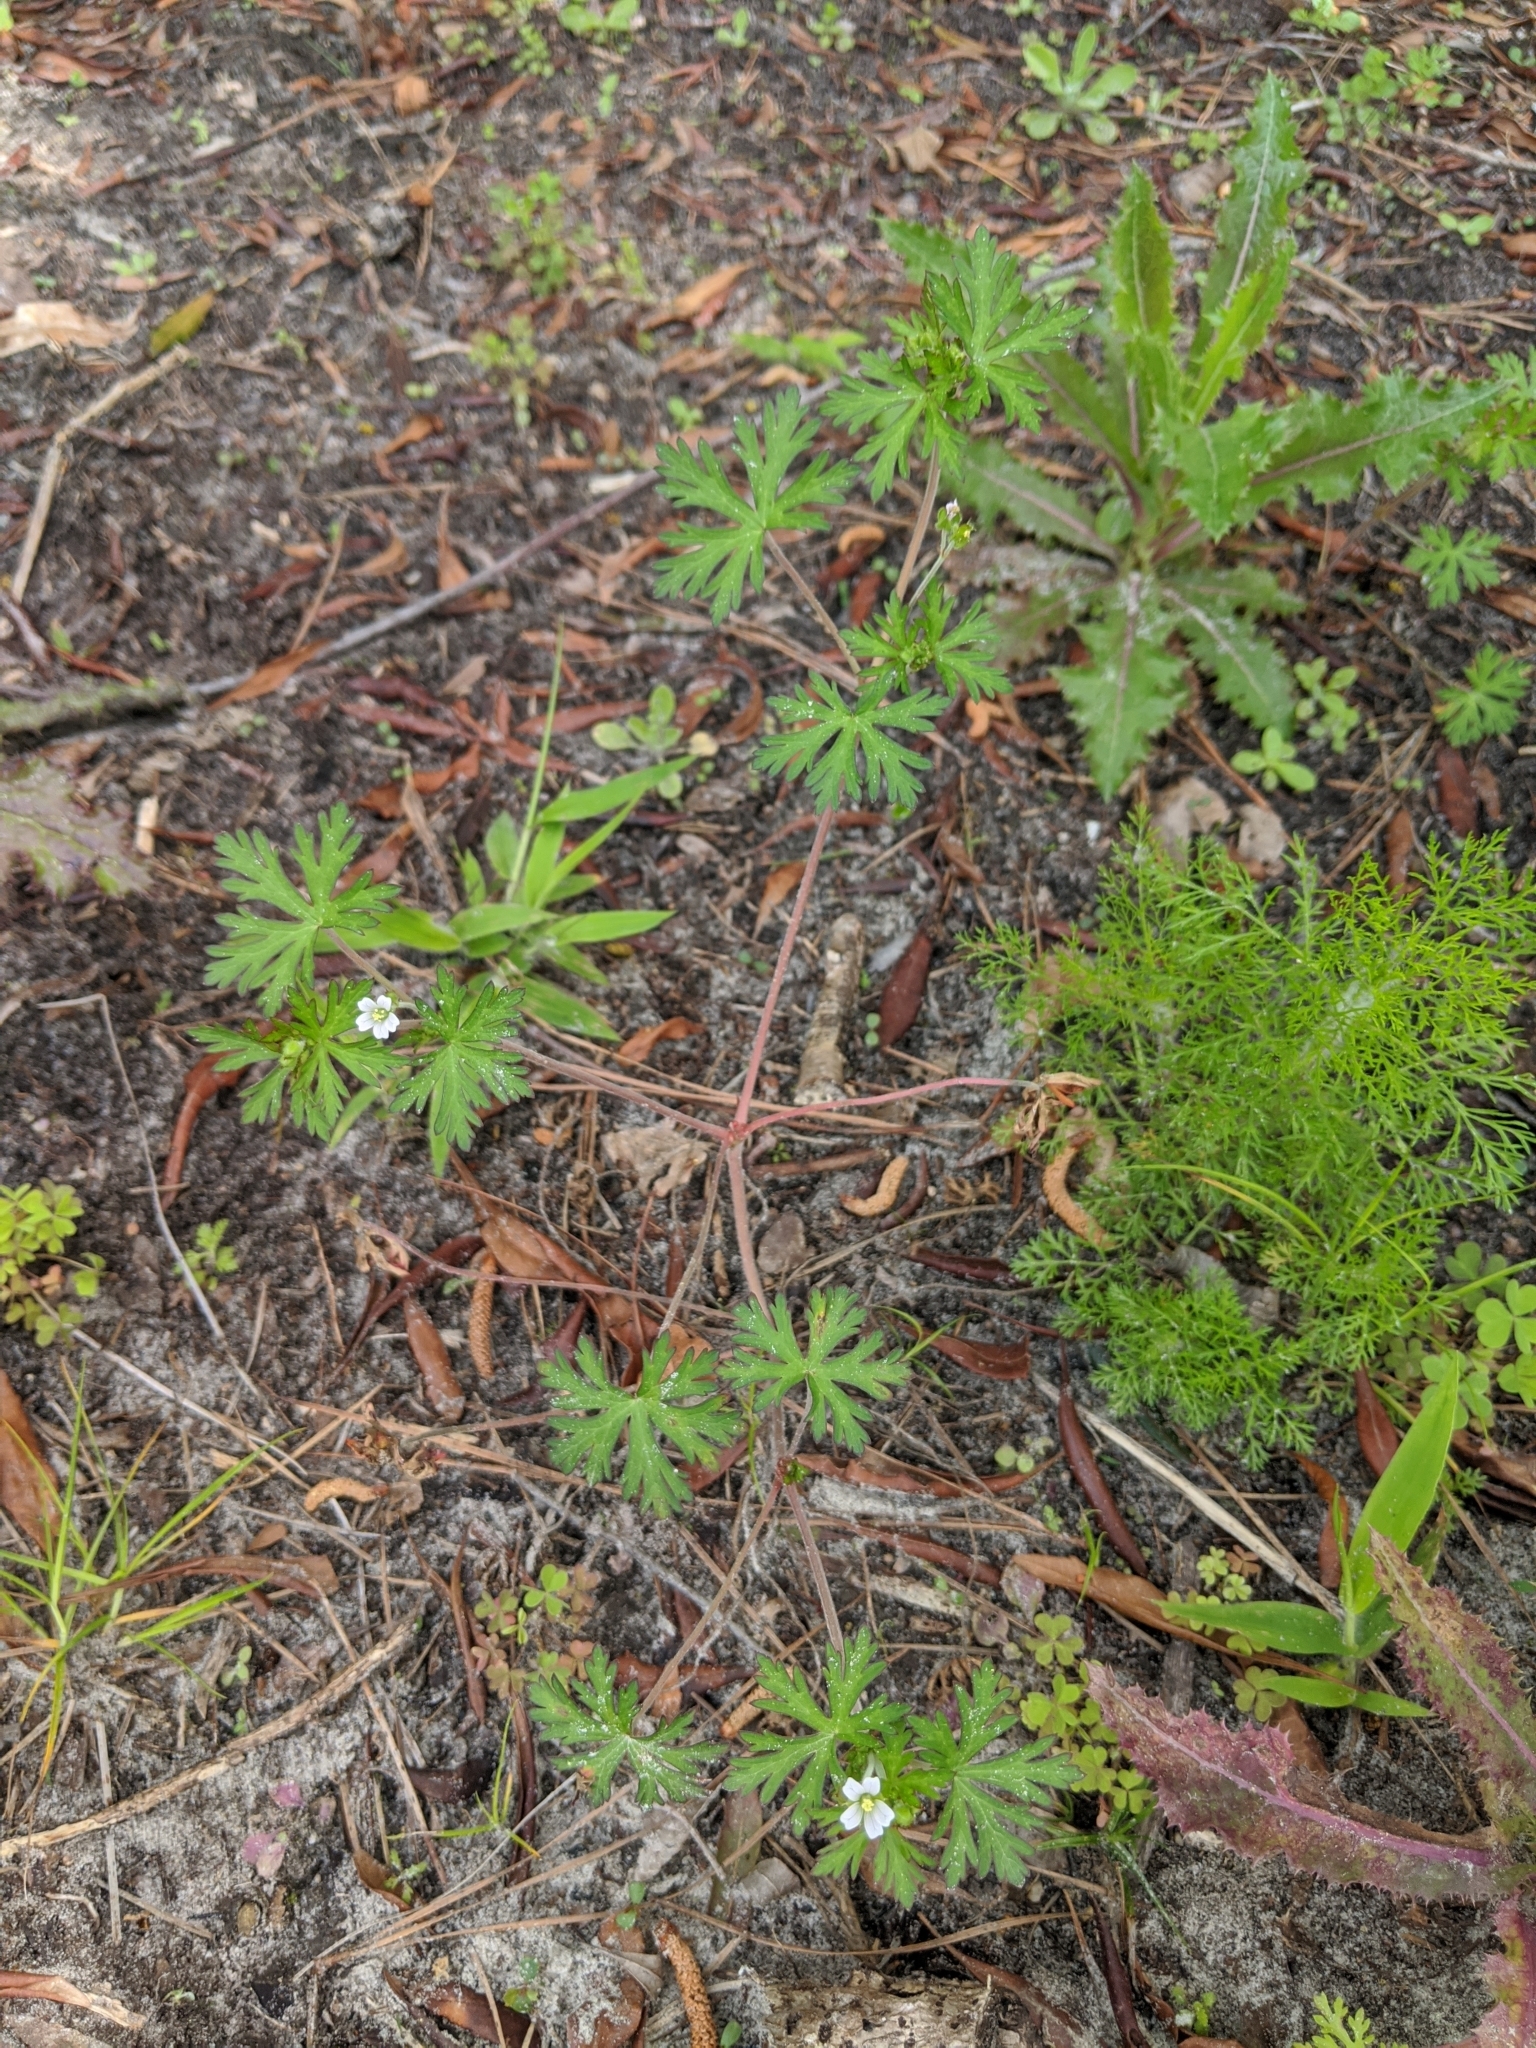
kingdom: Plantae
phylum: Tracheophyta
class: Magnoliopsida
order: Geraniales
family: Geraniaceae
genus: Geranium
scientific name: Geranium carolinianum
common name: Carolina crane's-bill
